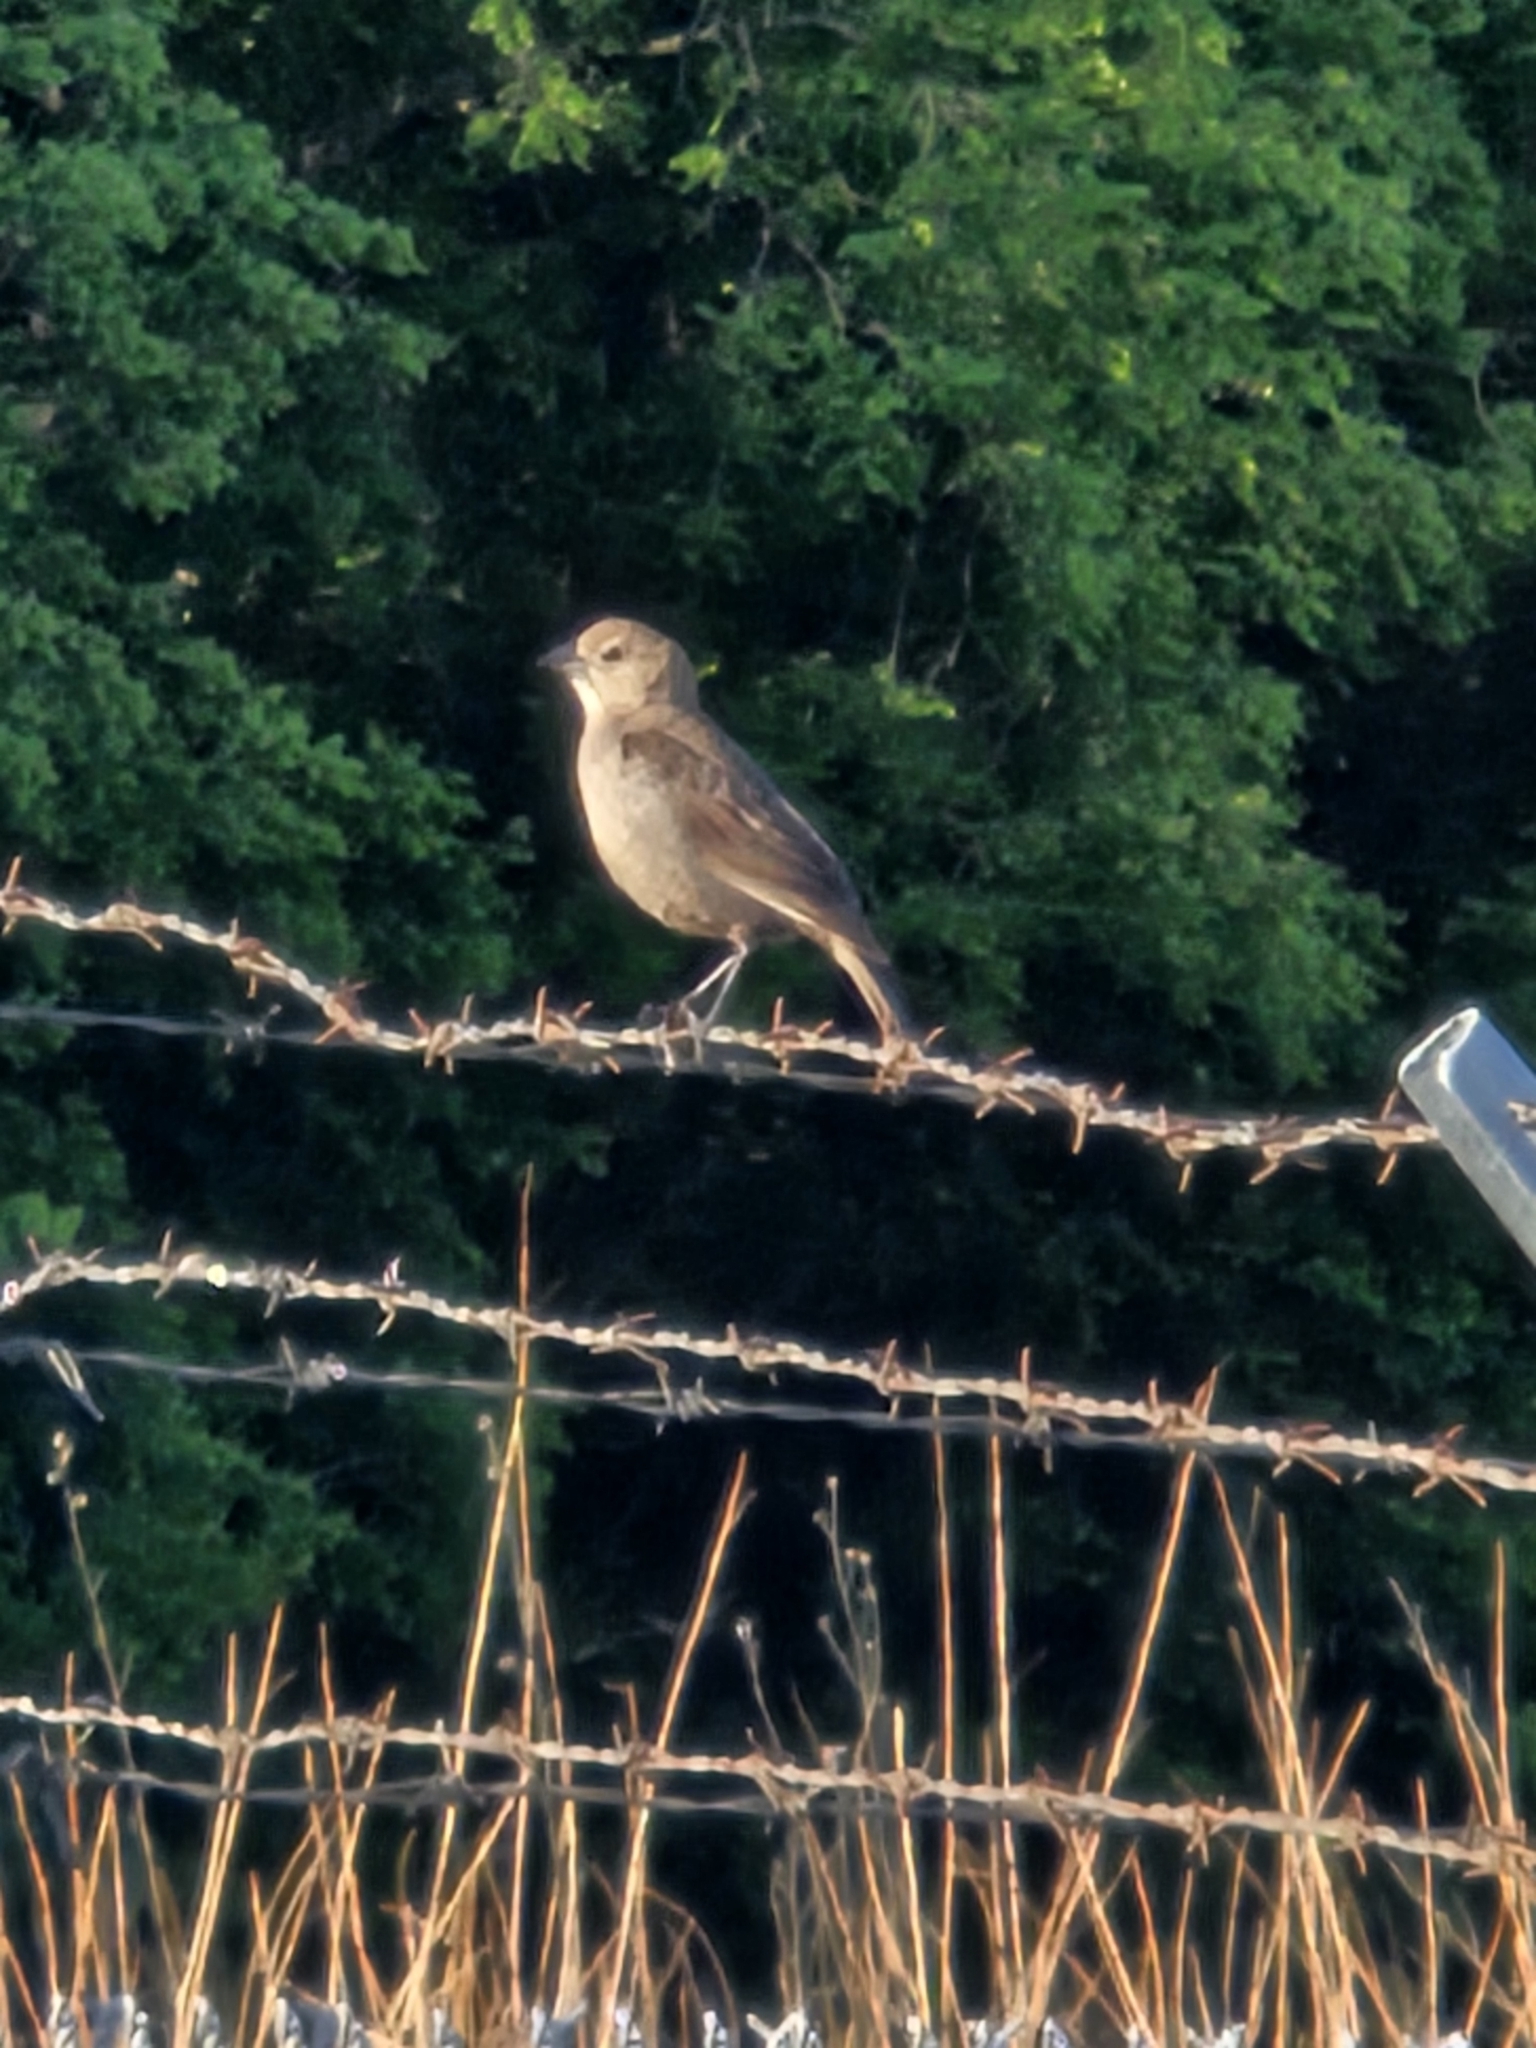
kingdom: Animalia
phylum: Chordata
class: Aves
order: Passeriformes
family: Icteridae
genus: Molothrus
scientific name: Molothrus ater
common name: Brown-headed cowbird
